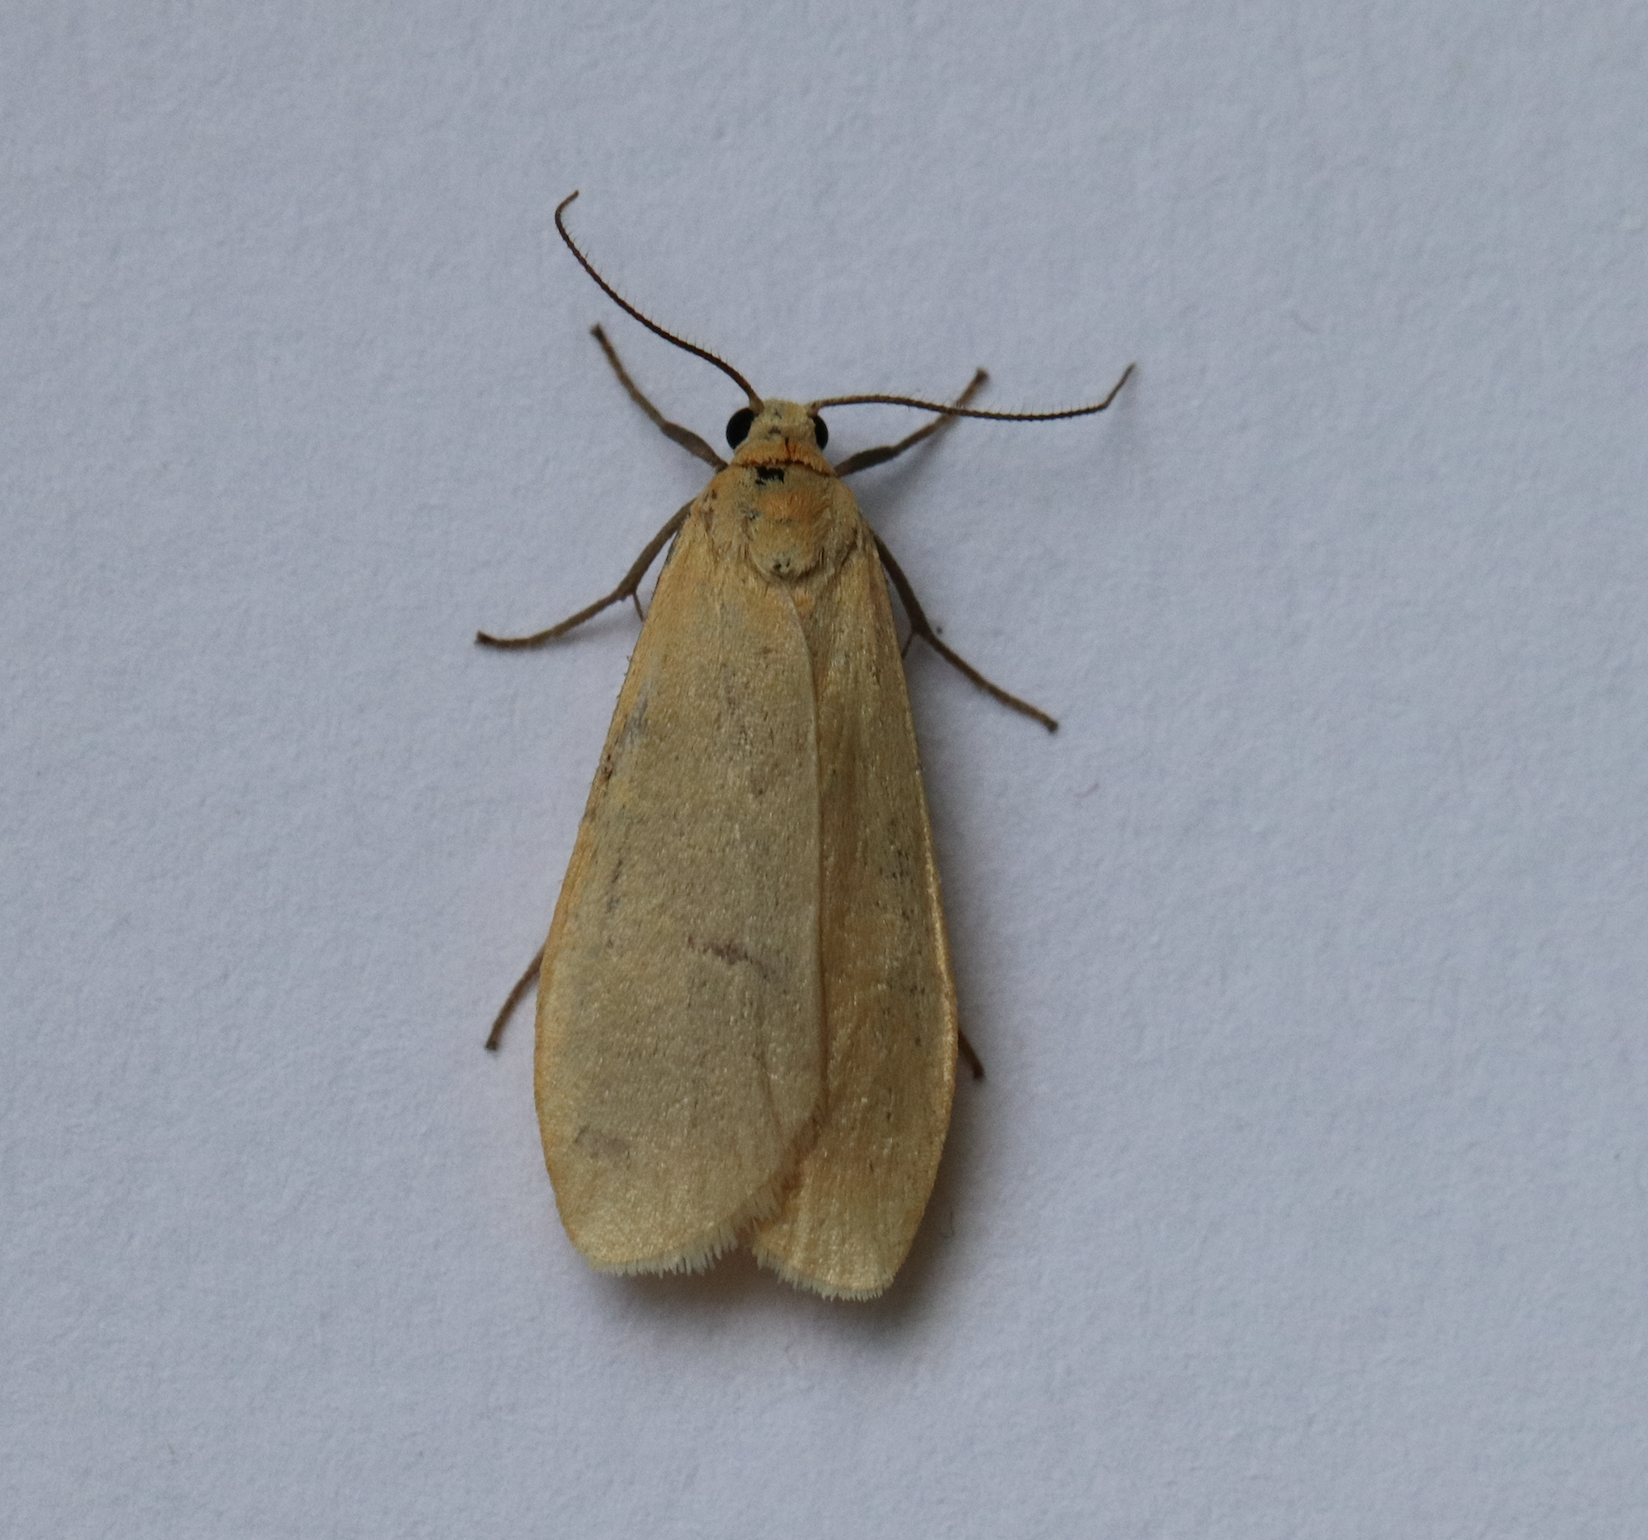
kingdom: Animalia
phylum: Arthropoda
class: Insecta
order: Lepidoptera
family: Erebidae
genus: Wittia
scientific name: Wittia sororcula
